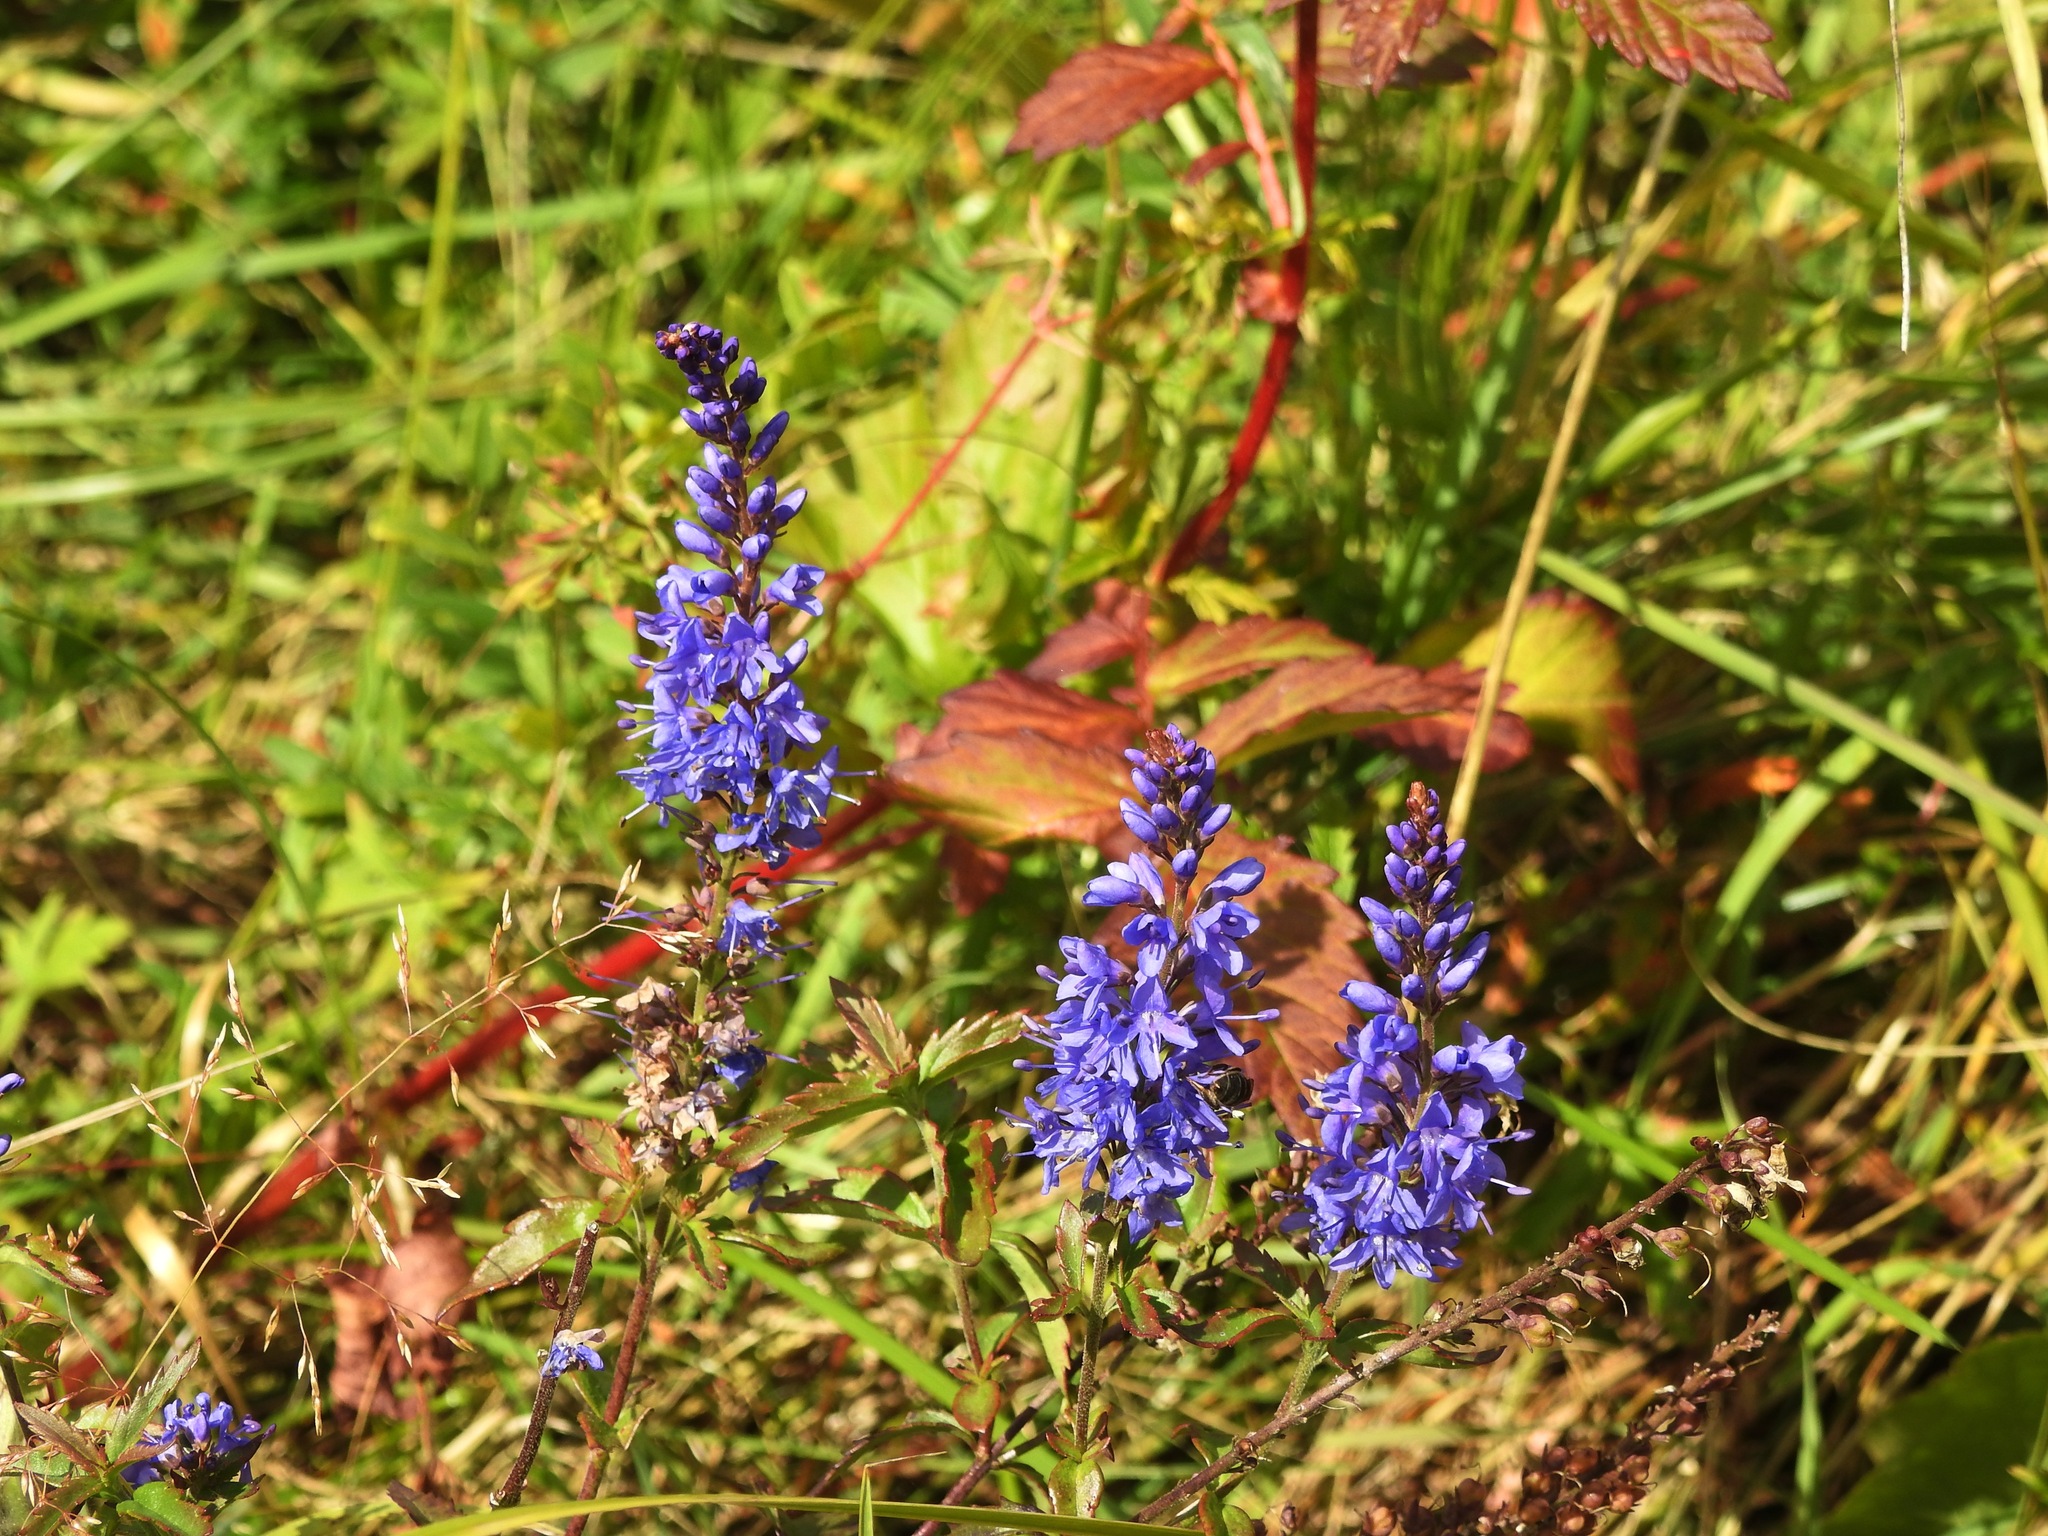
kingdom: Plantae
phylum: Tracheophyta
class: Magnoliopsida
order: Lamiales
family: Plantaginaceae
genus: Veronica
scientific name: Veronica longifolia
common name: Garden speedwell
